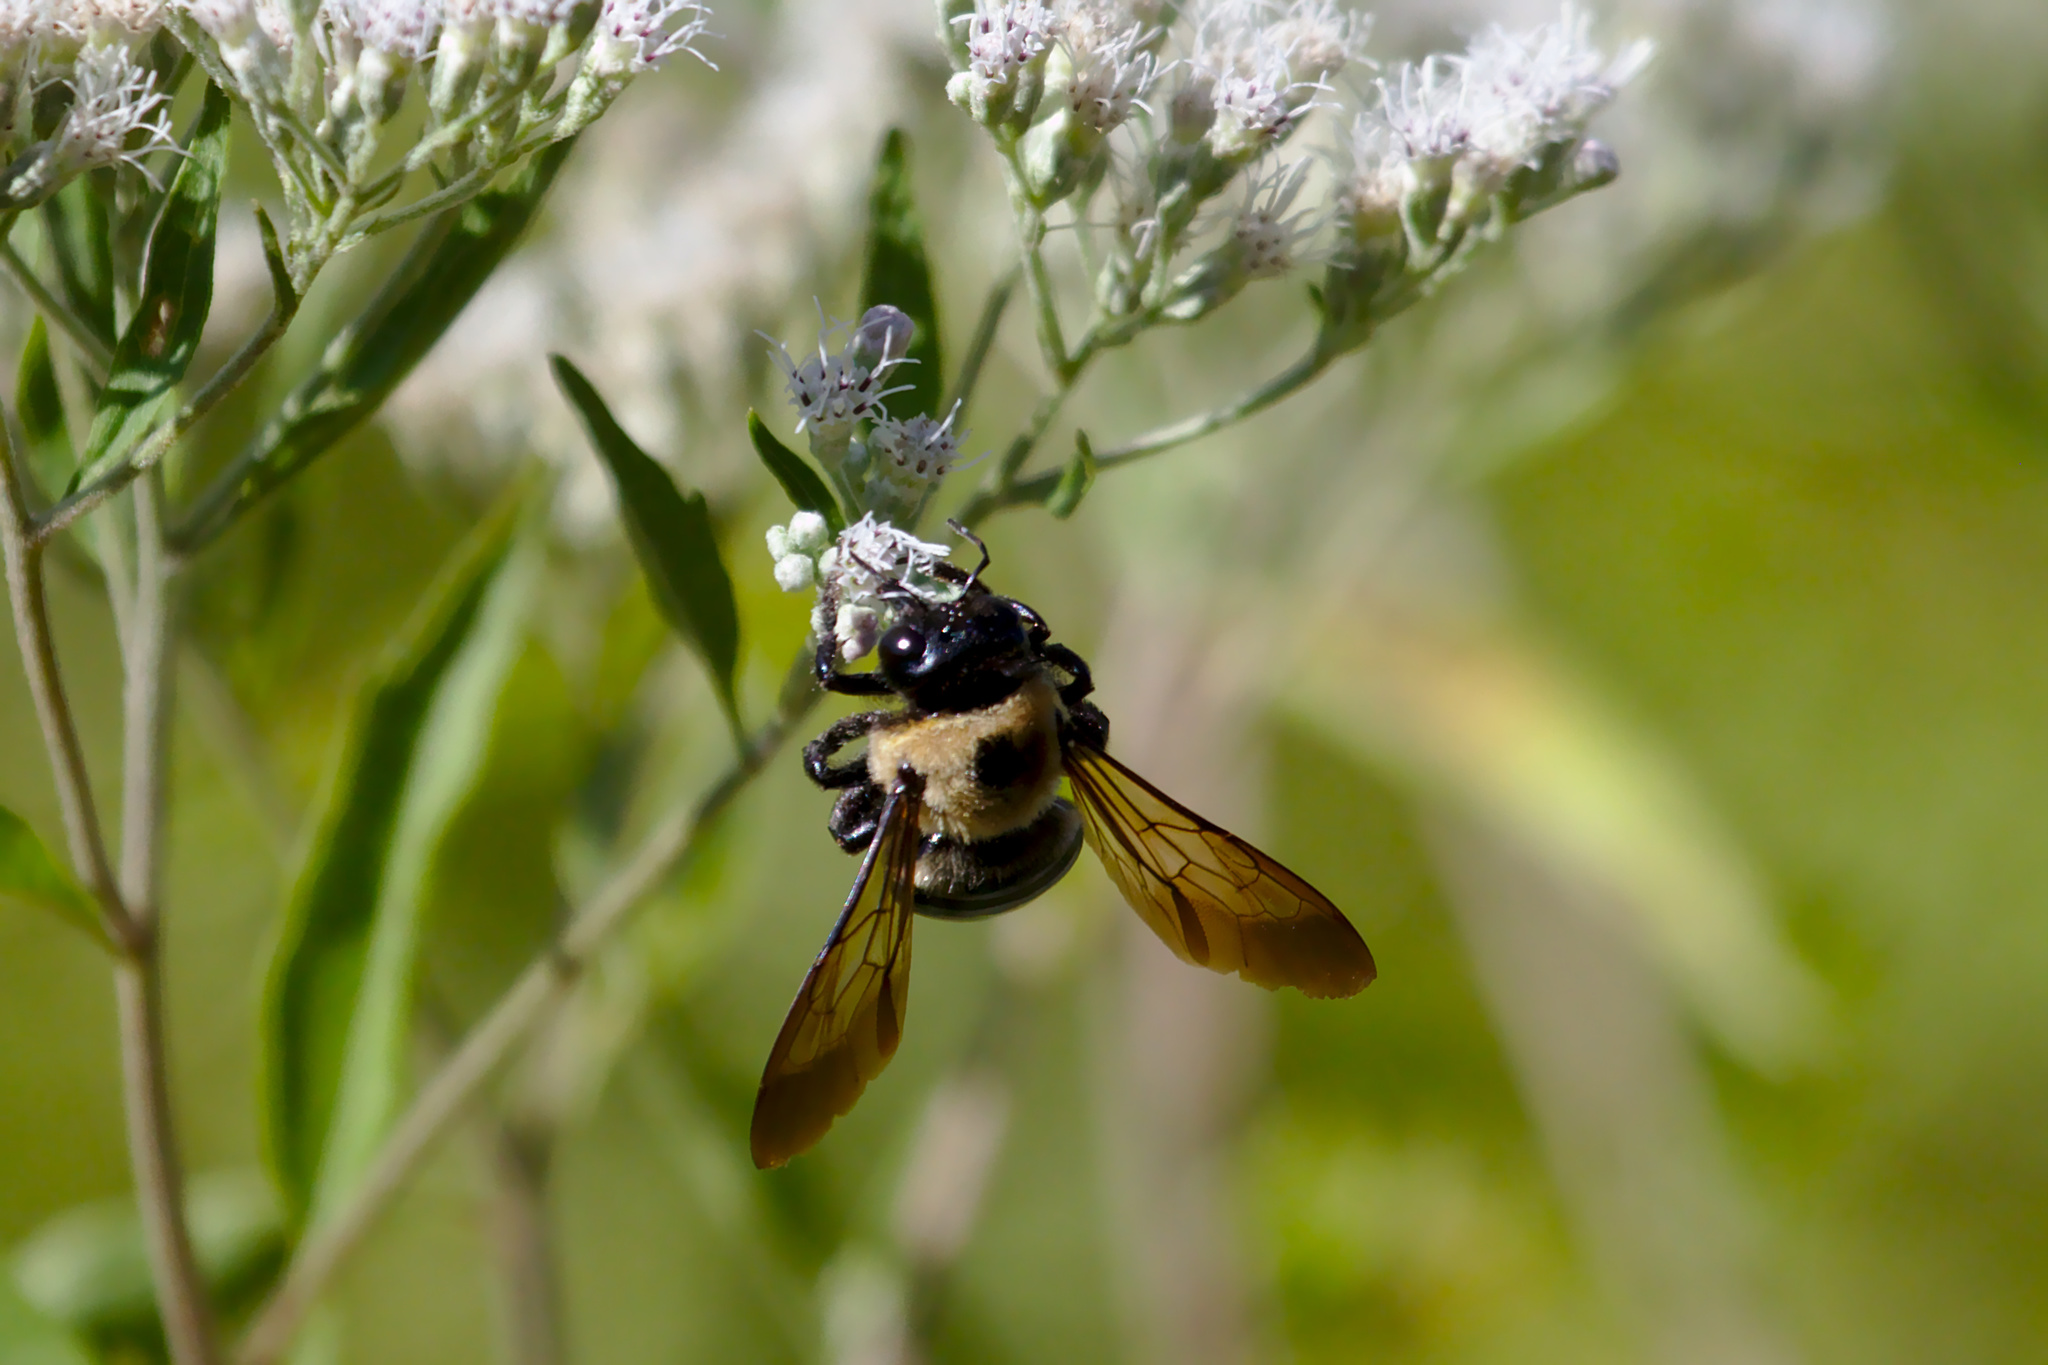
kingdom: Animalia
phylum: Arthropoda
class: Insecta
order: Hymenoptera
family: Apidae
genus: Xylocopa
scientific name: Xylocopa virginica
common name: Carpenter bee
